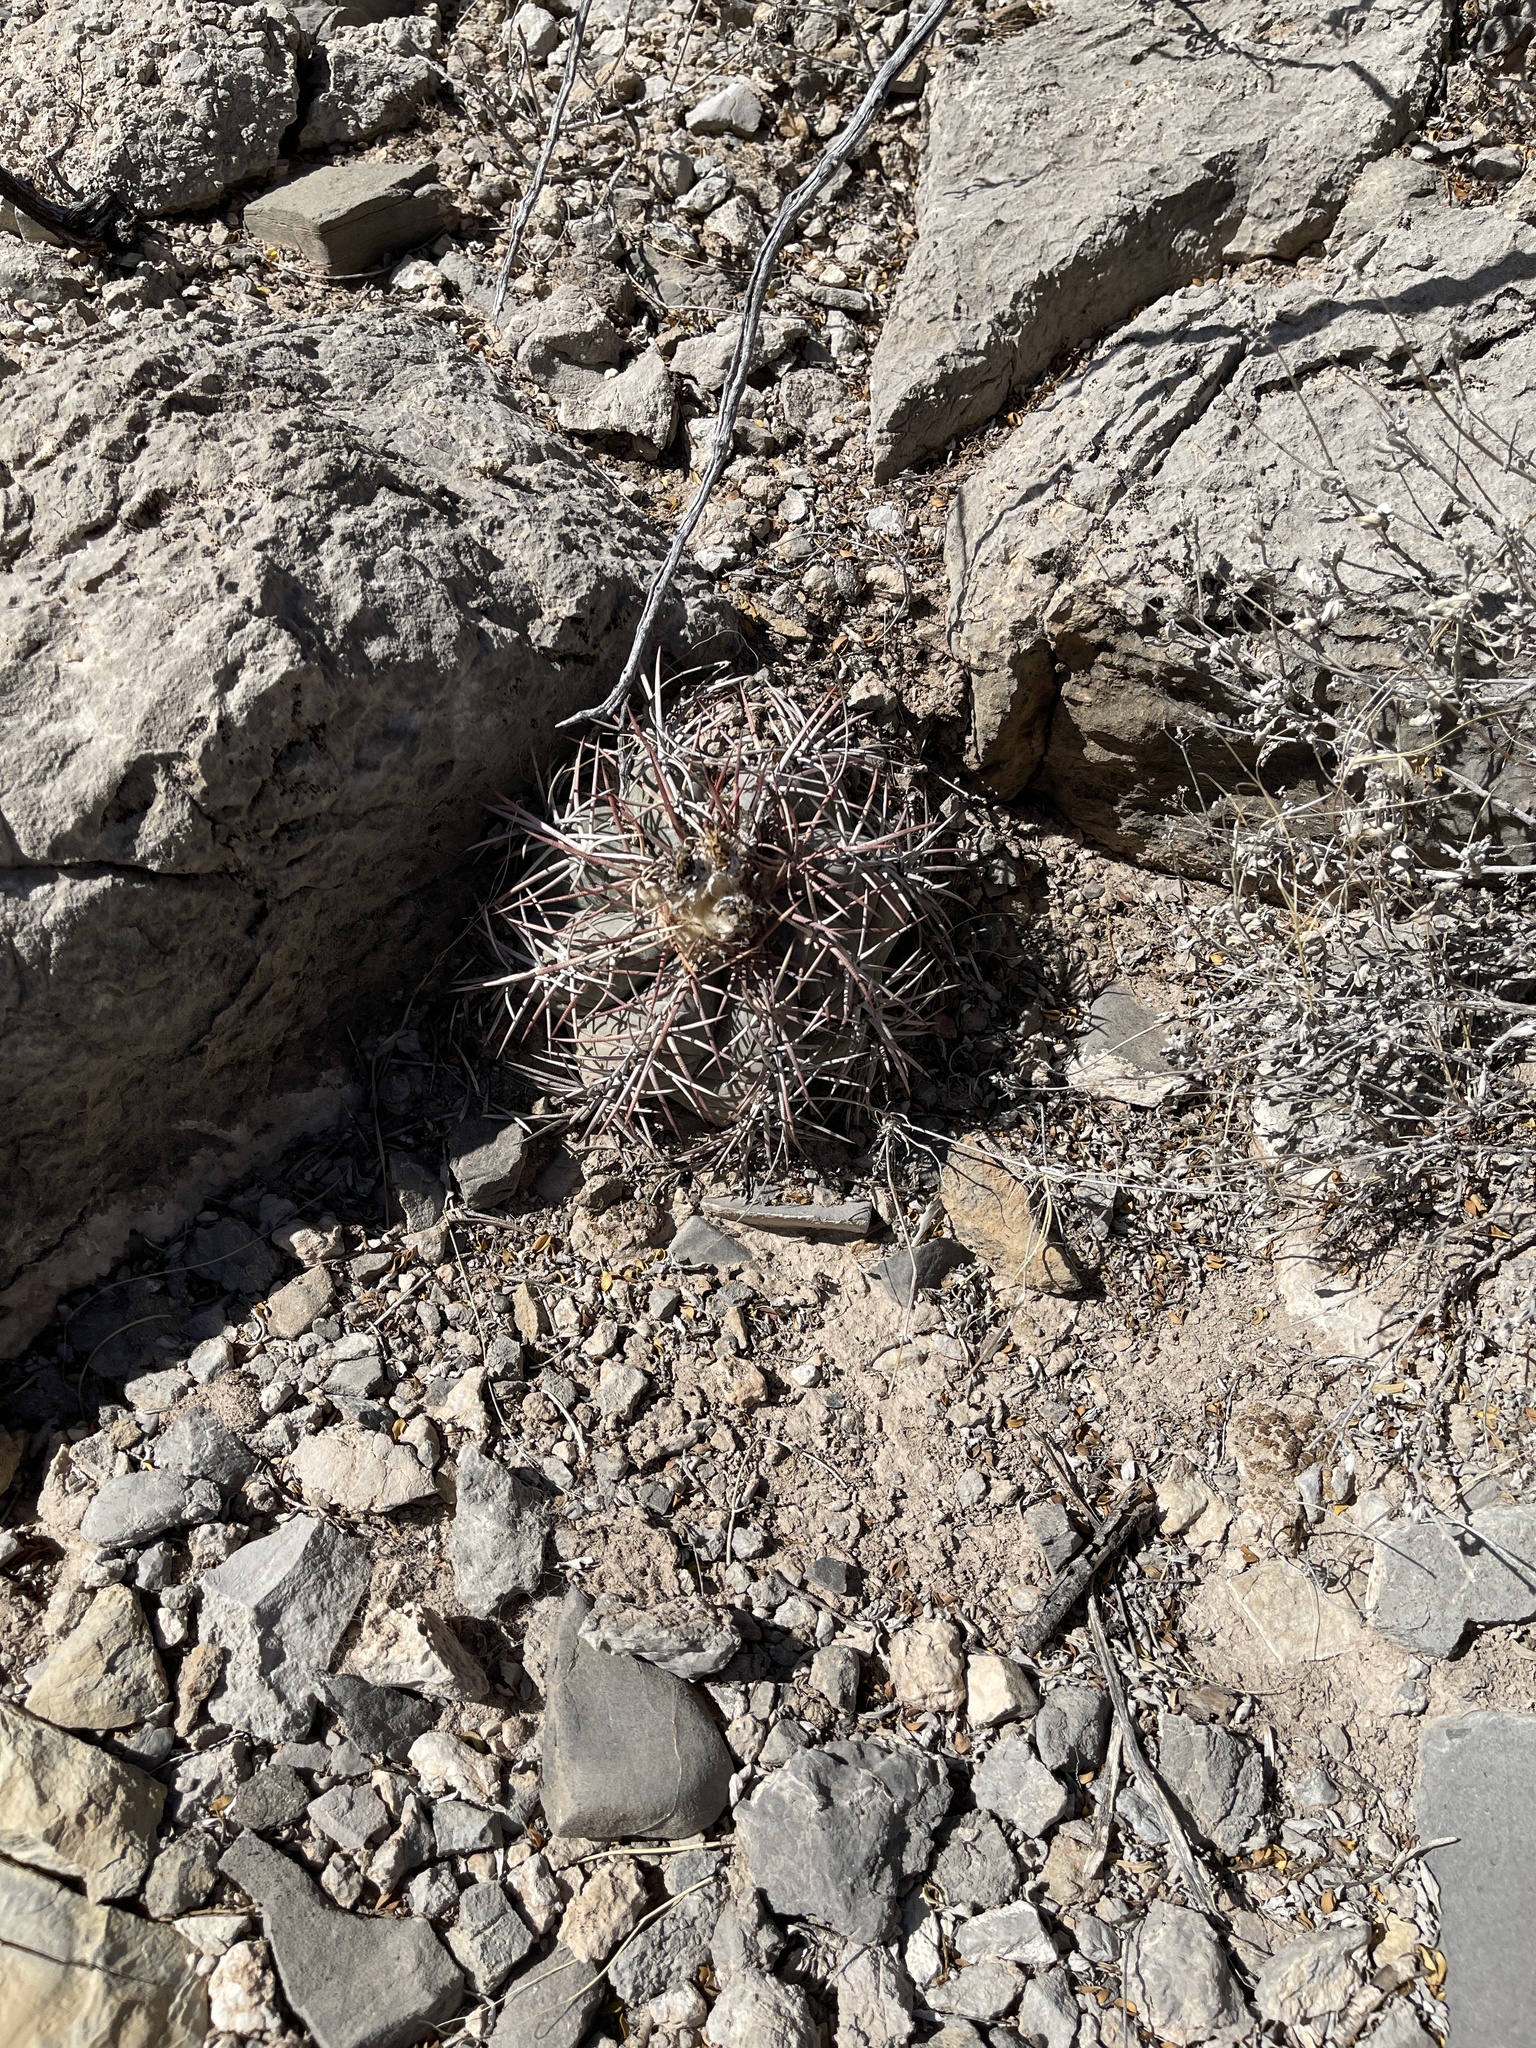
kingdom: Plantae
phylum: Tracheophyta
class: Magnoliopsida
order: Caryophyllales
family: Cactaceae
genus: Echinocactus
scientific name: Echinocactus horizonthalonius
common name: Devilshead
